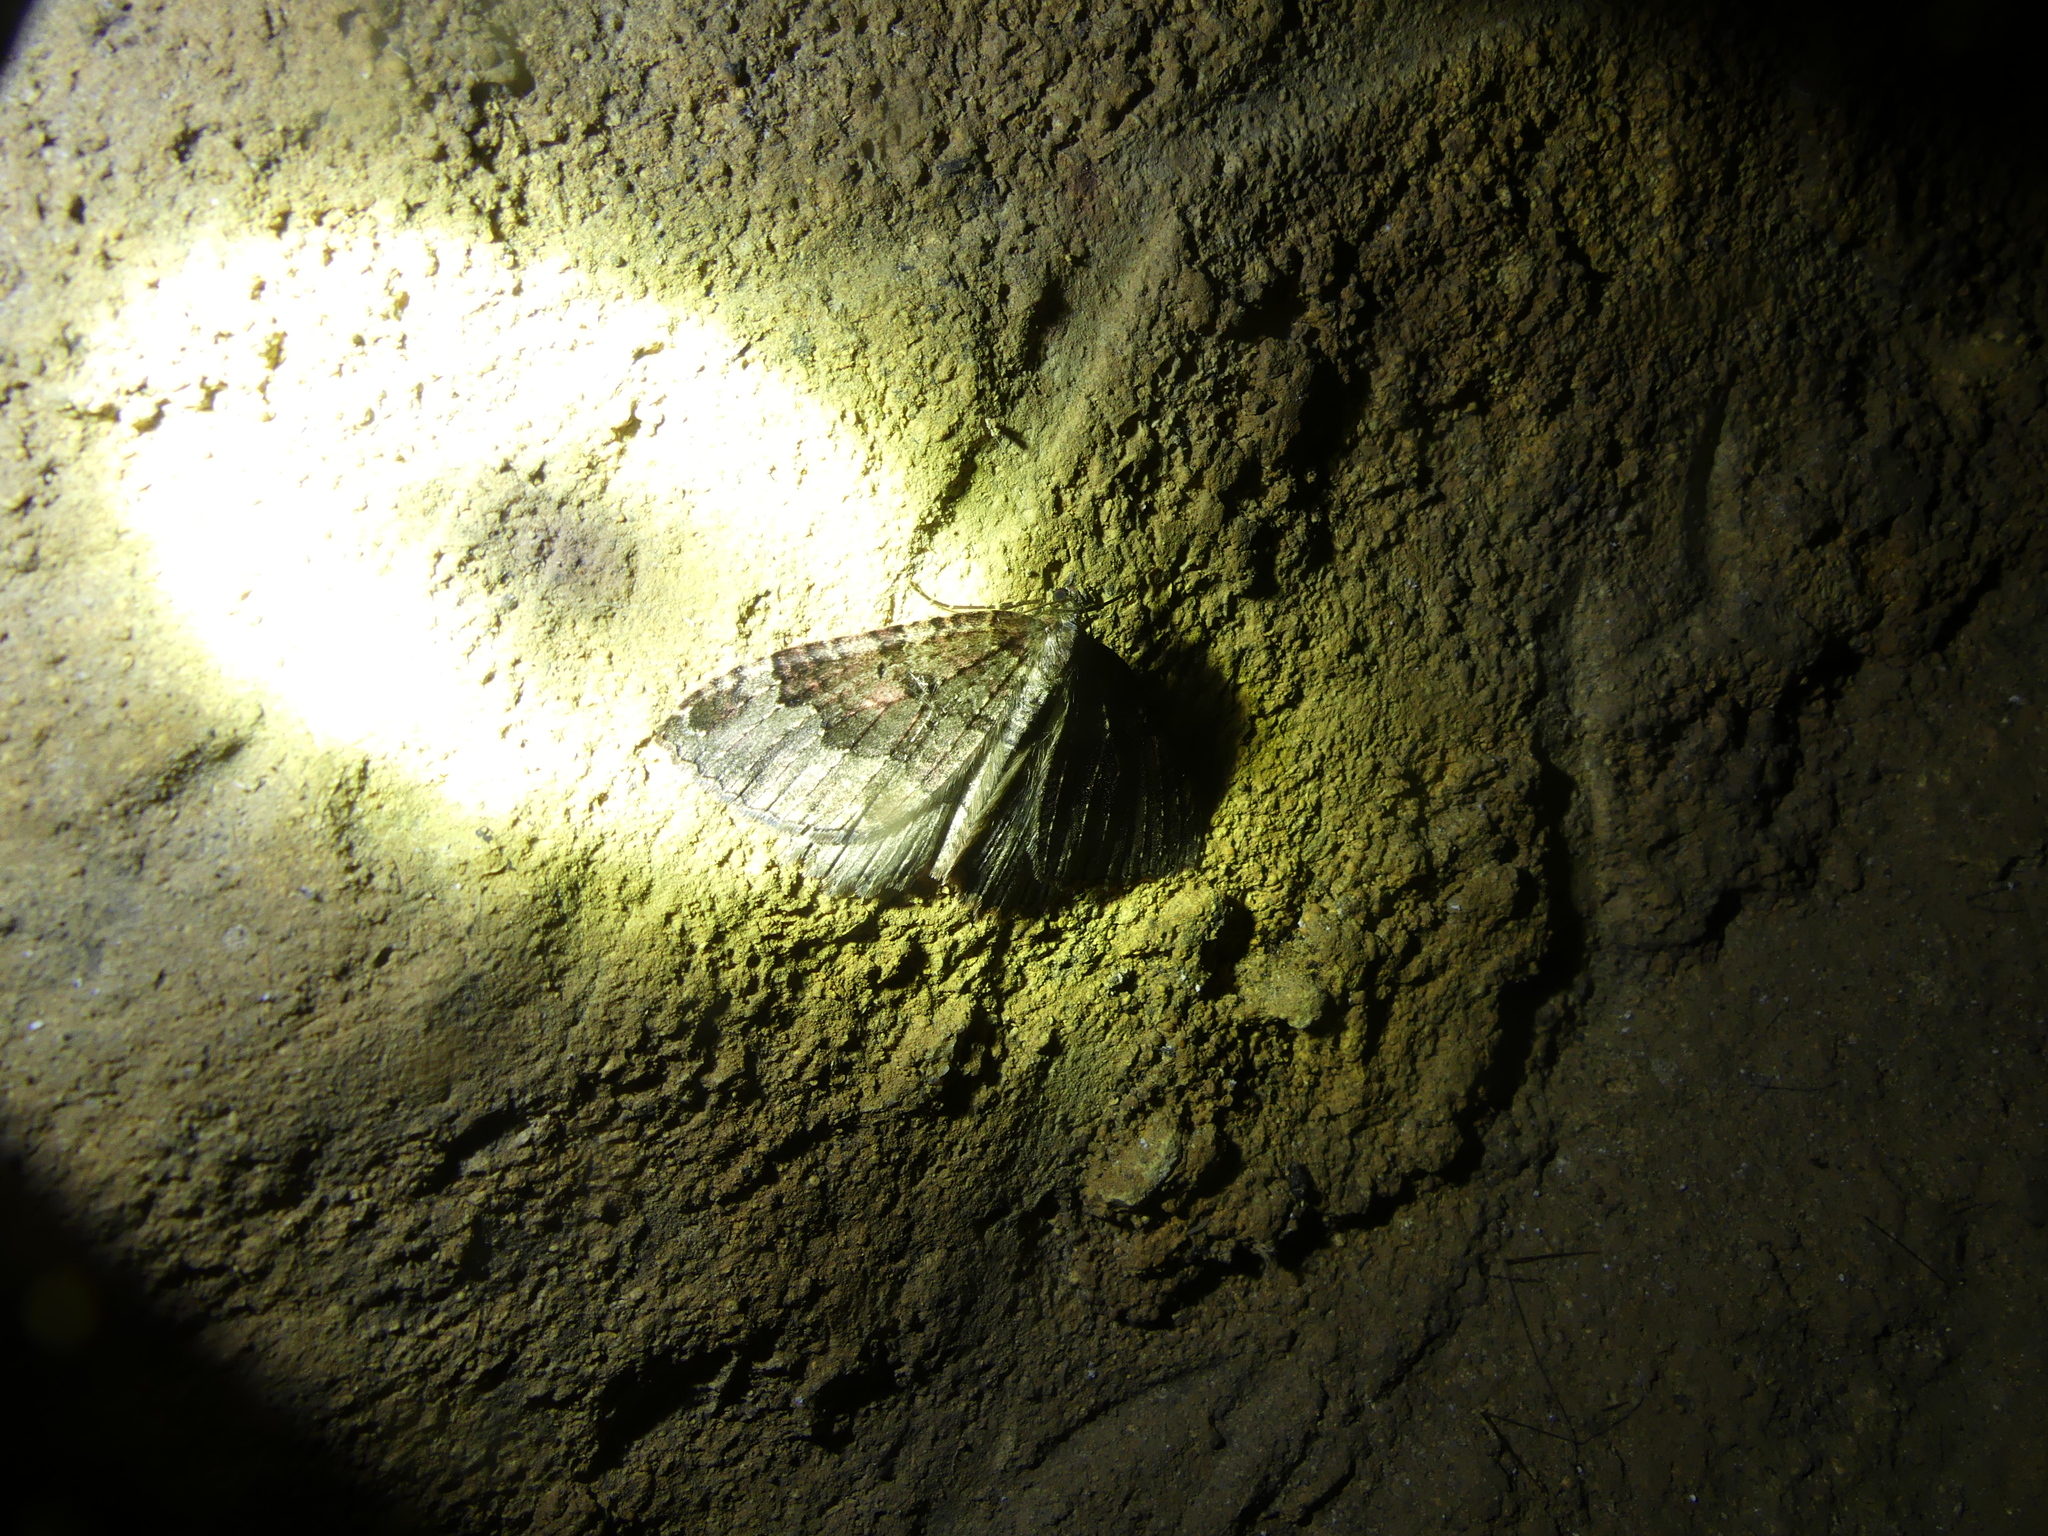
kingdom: Animalia
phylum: Arthropoda
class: Insecta
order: Lepidoptera
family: Geometridae
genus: Triphosa
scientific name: Triphosa dubitata
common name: Tissue
